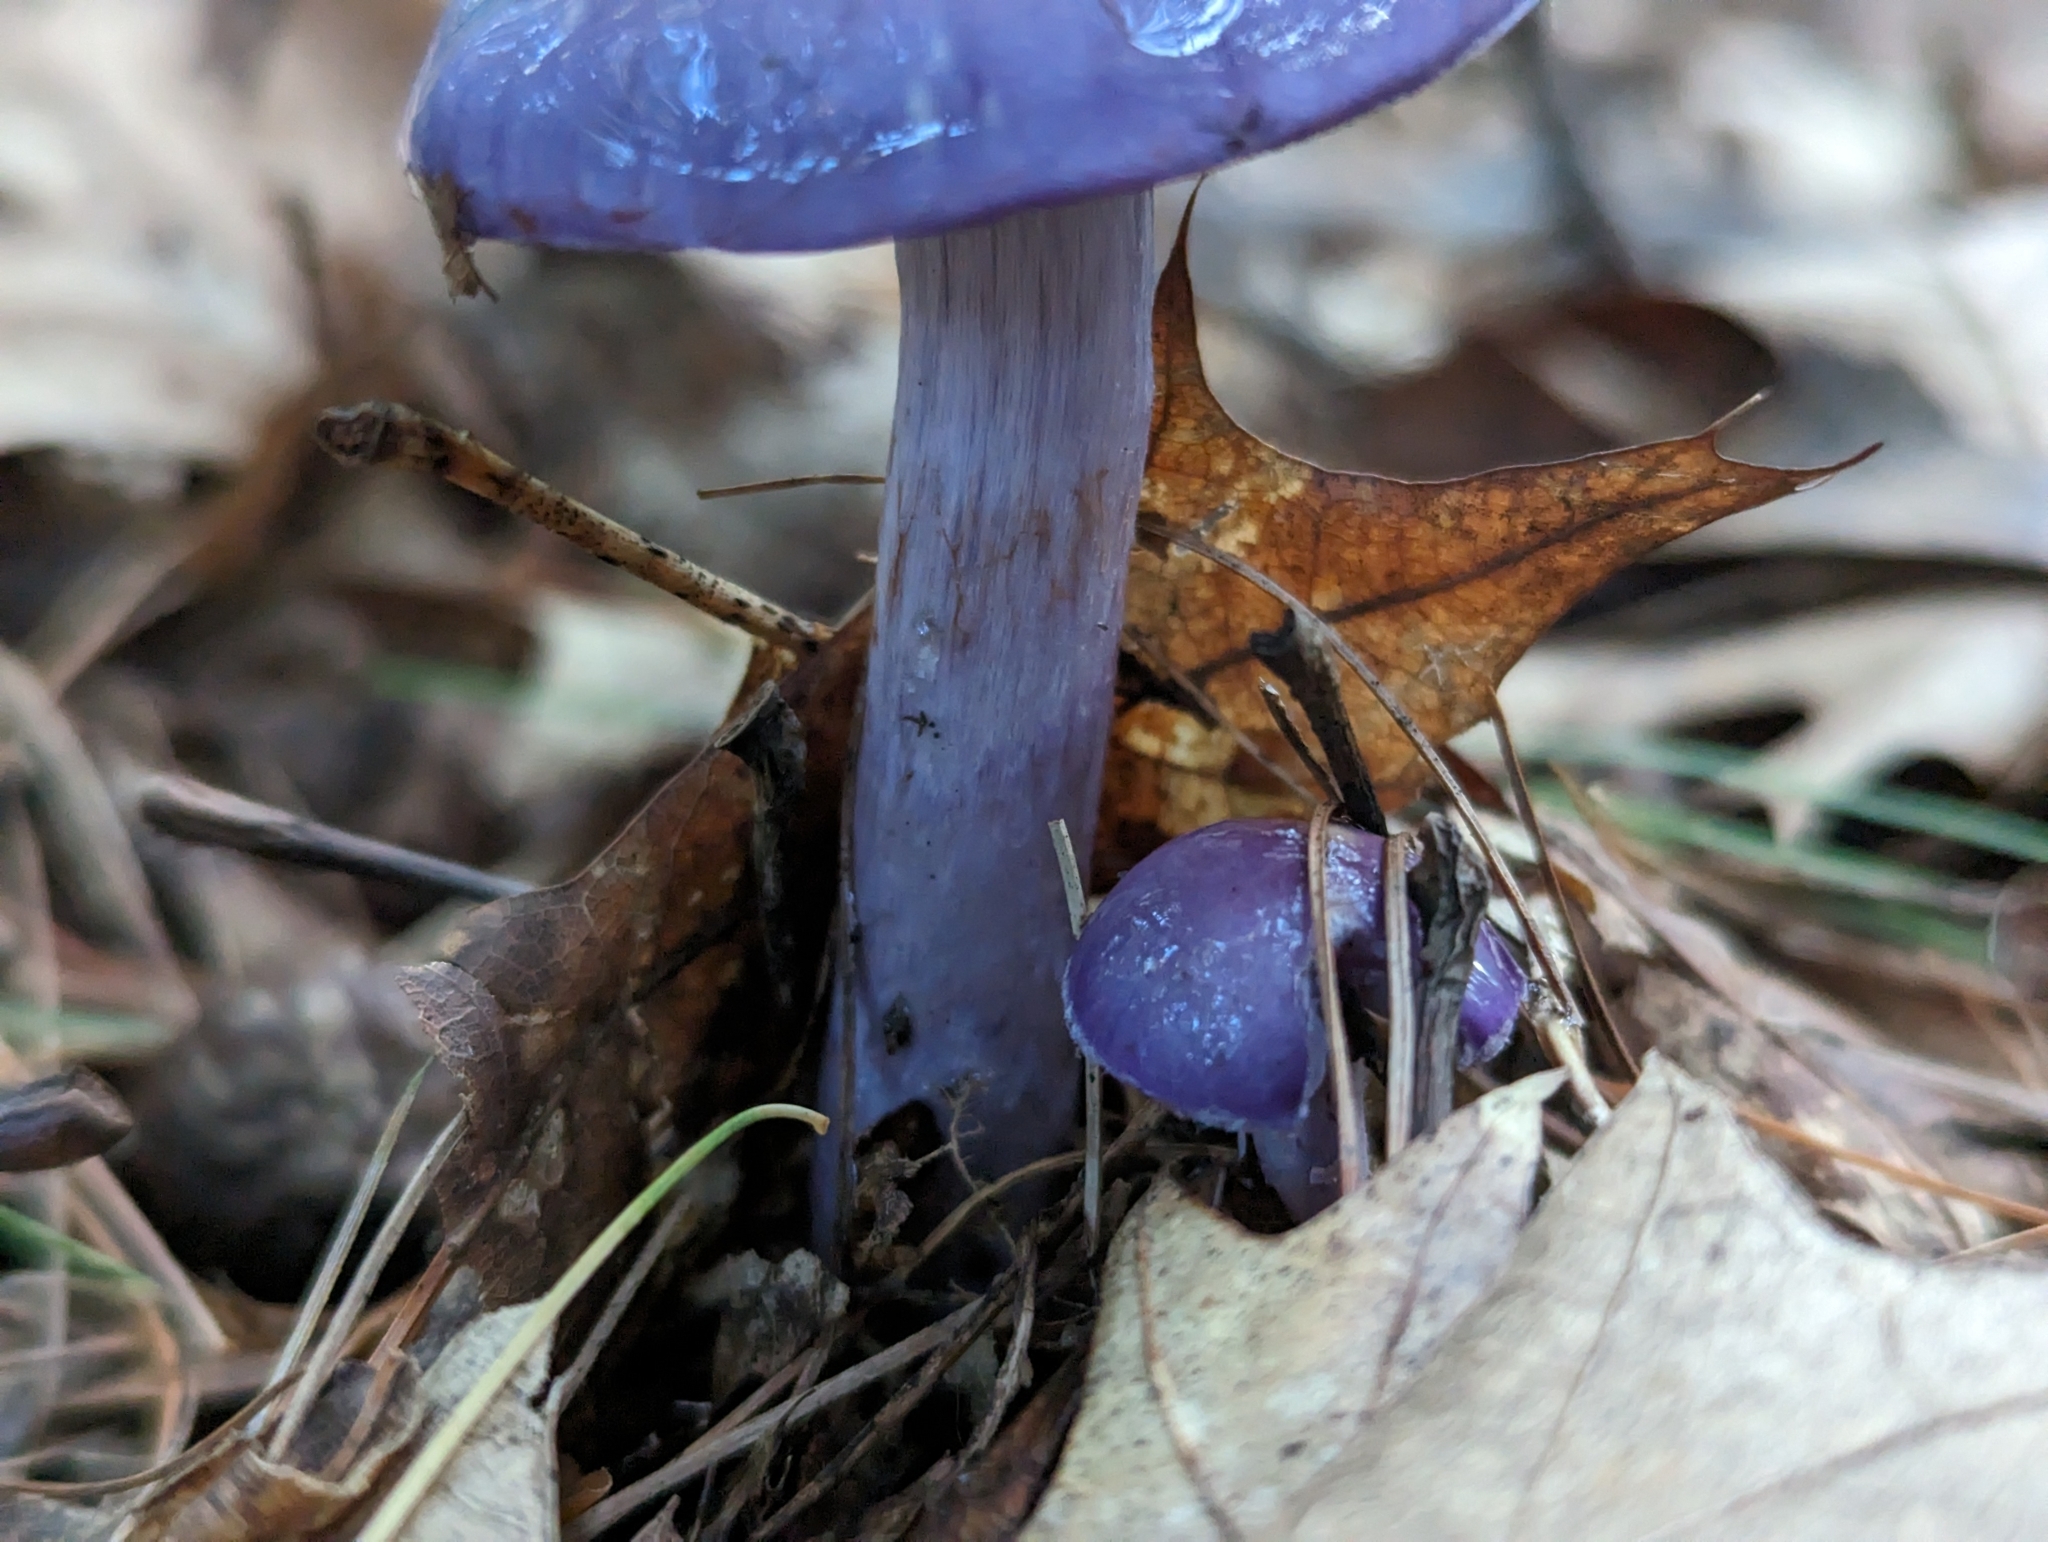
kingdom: Fungi
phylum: Basidiomycota
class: Agaricomycetes
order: Agaricales
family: Cortinariaceae
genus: Cortinarius
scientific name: Cortinarius iodes
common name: Viscid violet cort
